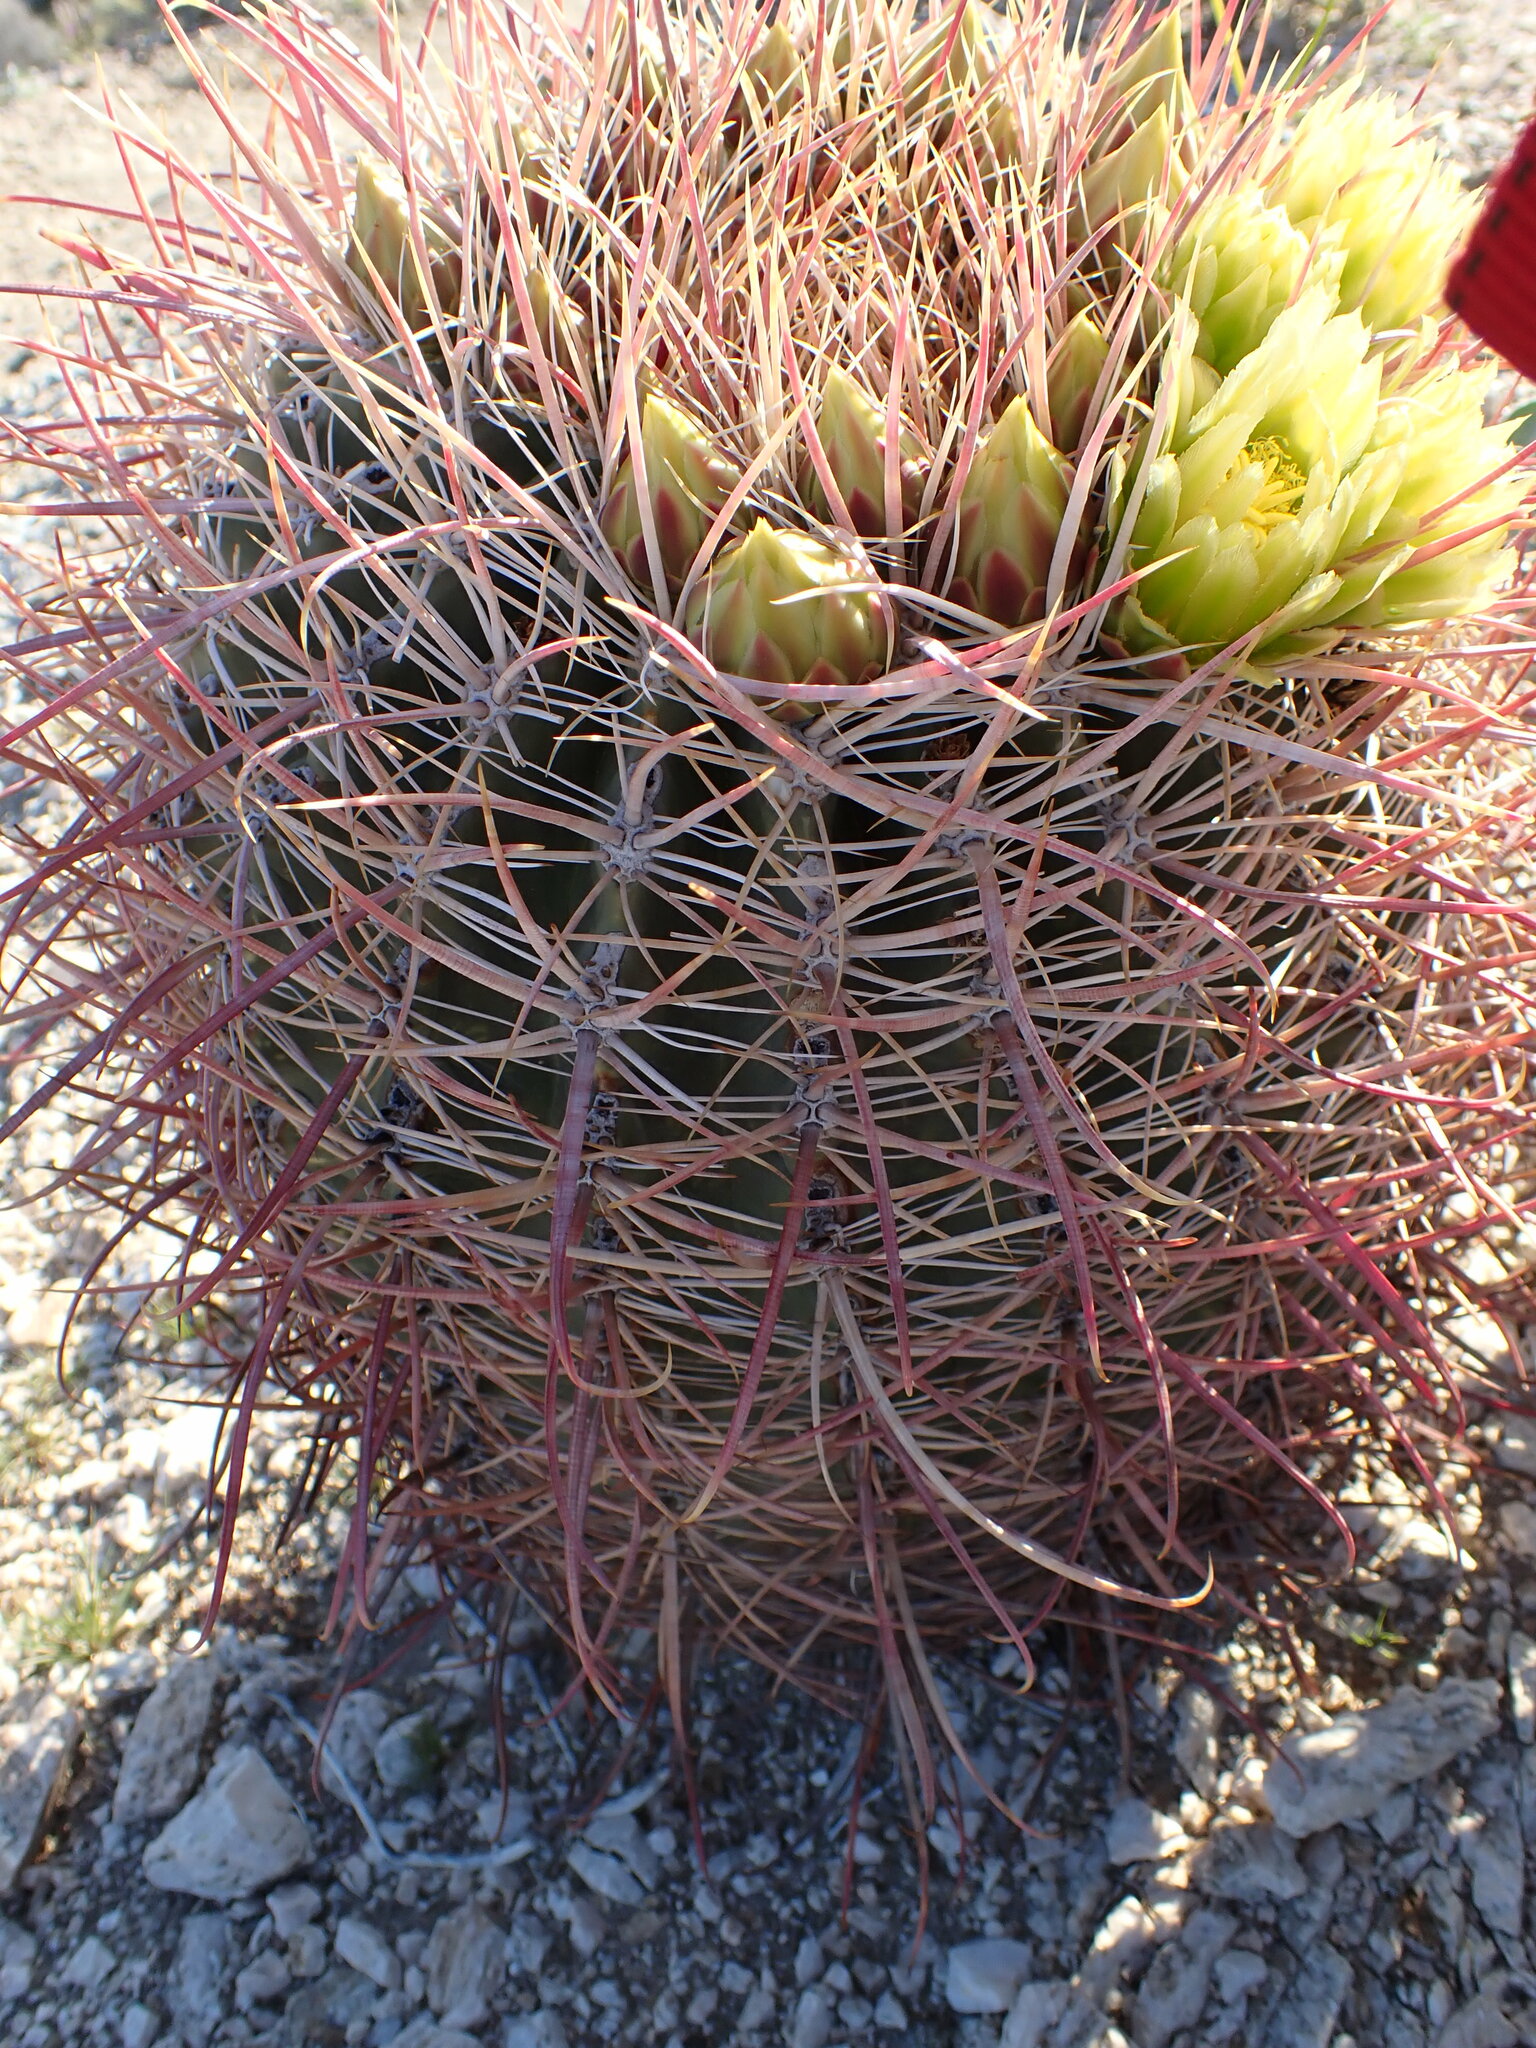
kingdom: Plantae
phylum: Tracheophyta
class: Magnoliopsida
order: Caryophyllales
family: Cactaceae
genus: Ferocactus
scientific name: Ferocactus cylindraceus
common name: California barrel cactus
